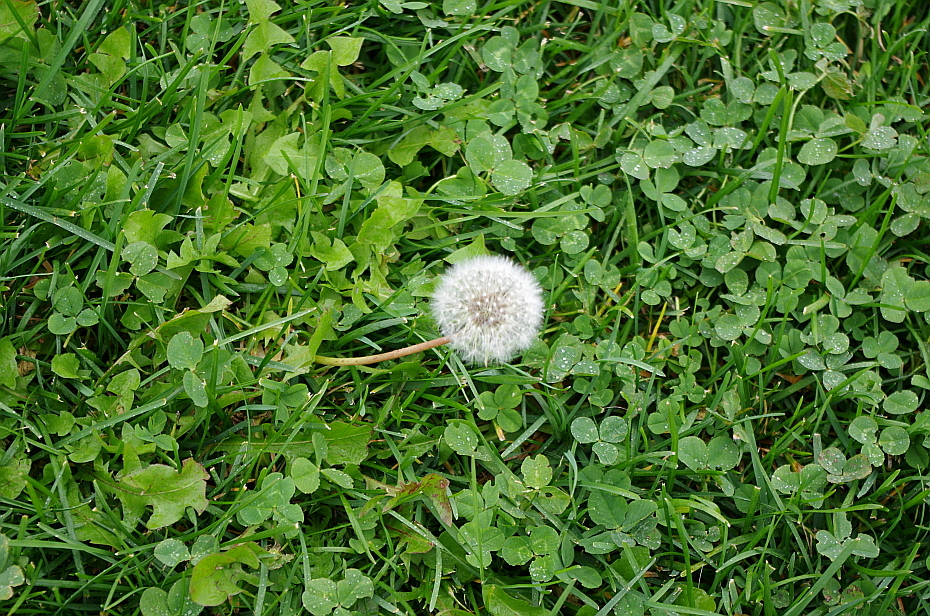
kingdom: Plantae
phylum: Tracheophyta
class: Magnoliopsida
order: Asterales
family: Asteraceae
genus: Taraxacum
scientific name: Taraxacum officinale
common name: Common dandelion
